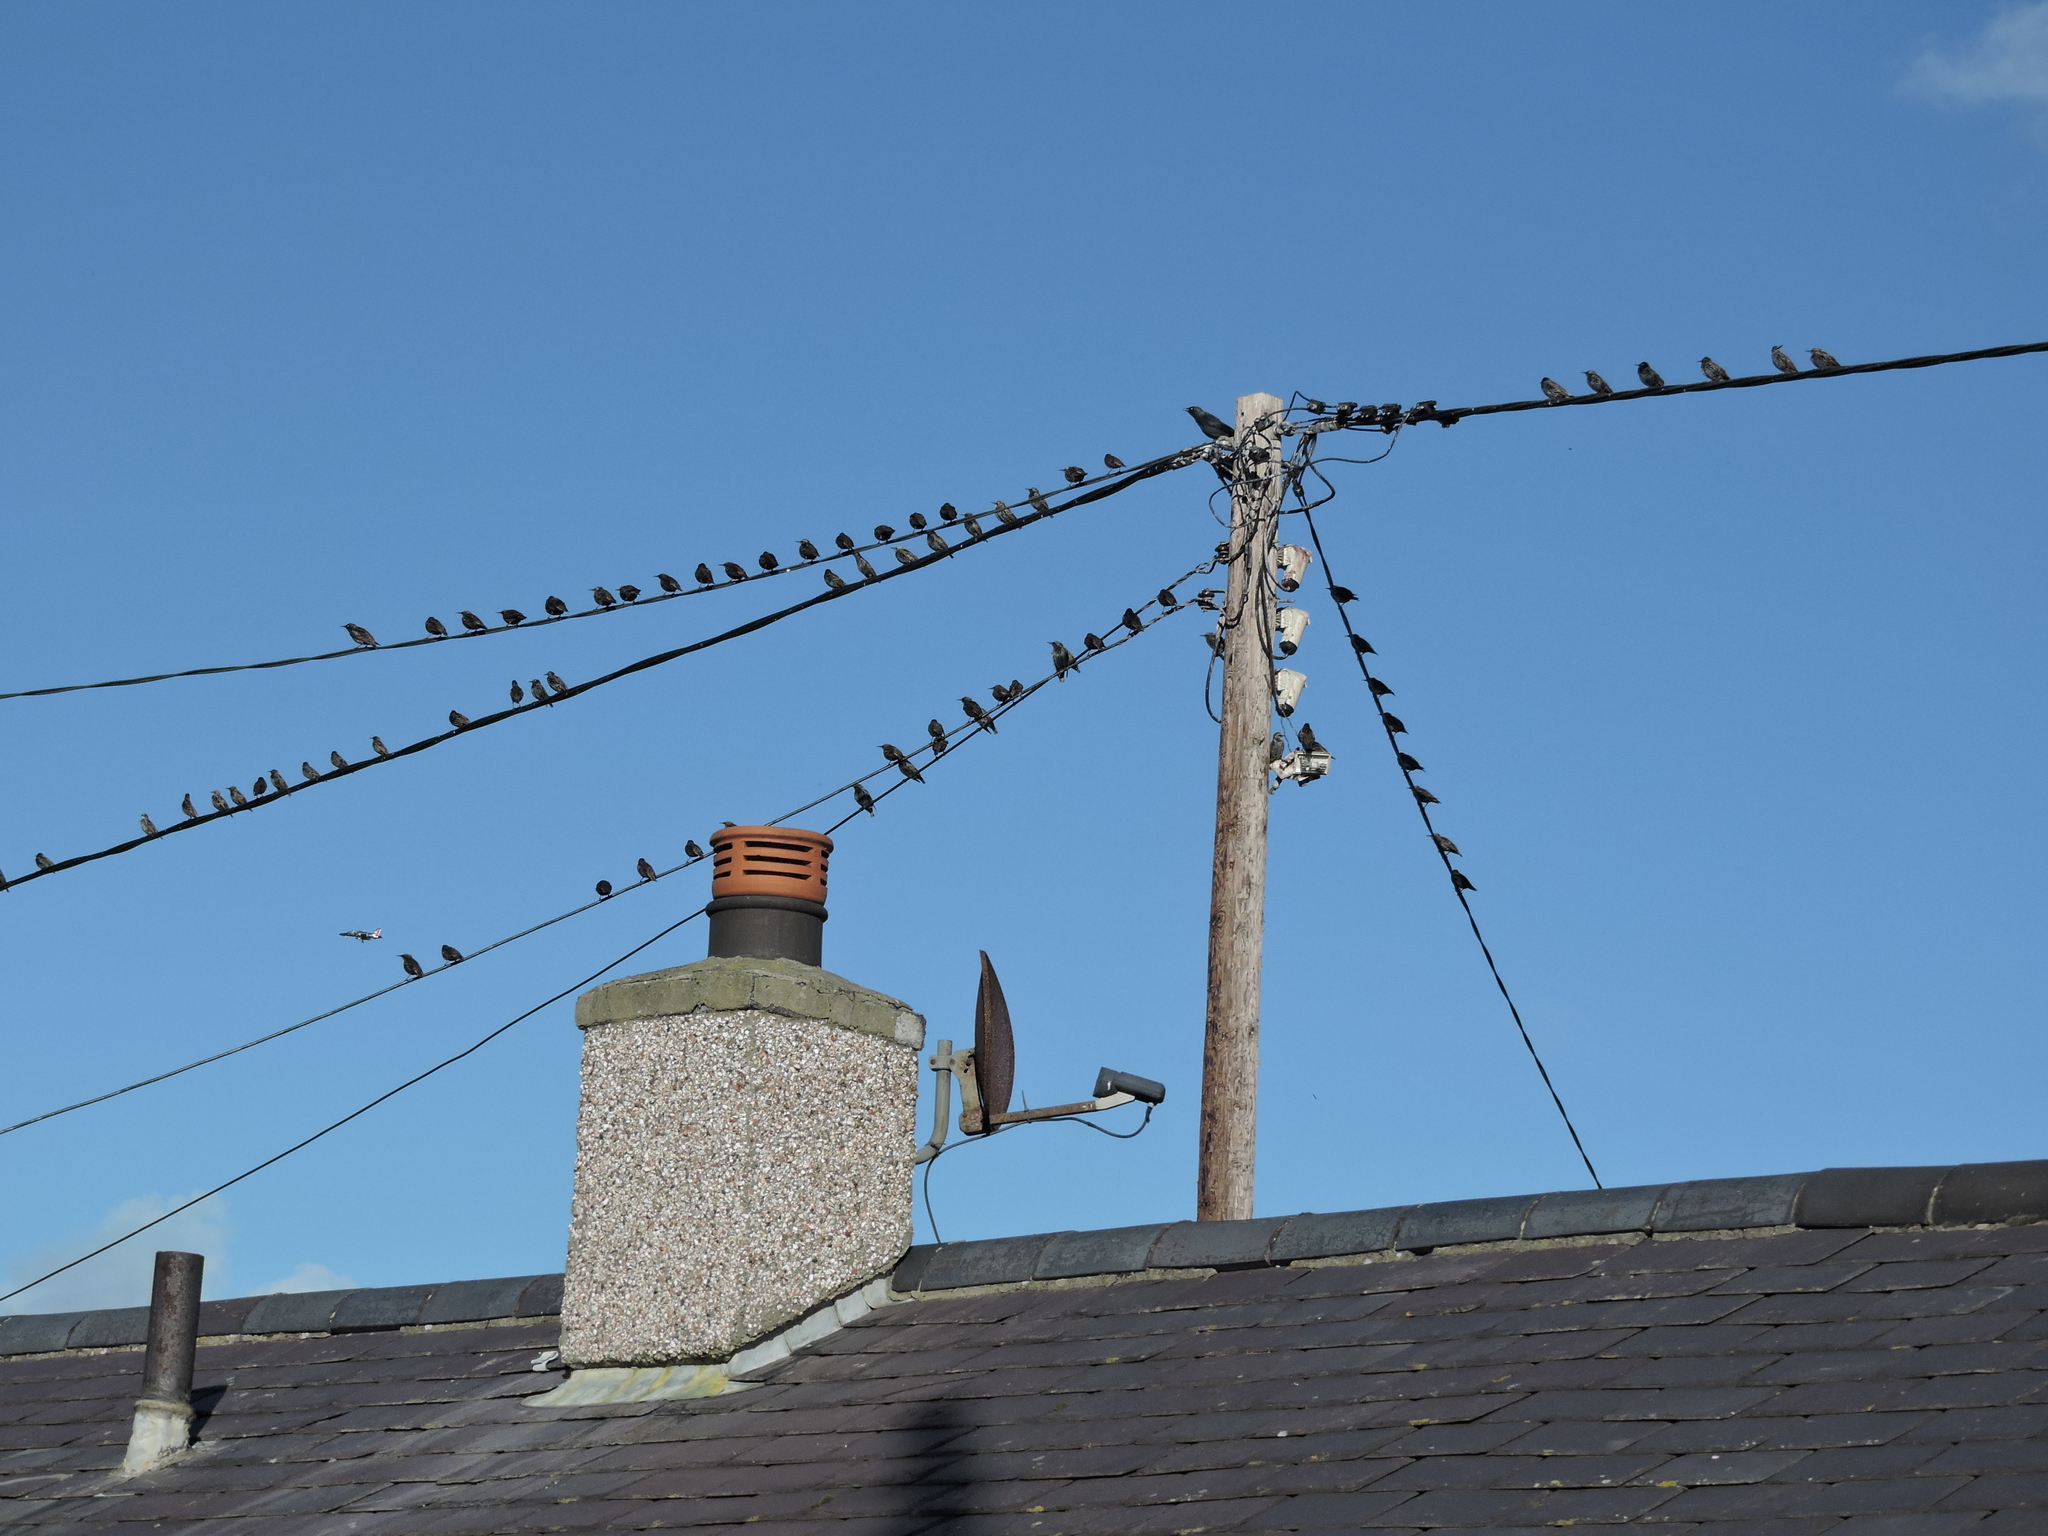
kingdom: Animalia
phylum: Chordata
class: Aves
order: Passeriformes
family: Sturnidae
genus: Sturnus
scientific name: Sturnus vulgaris
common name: Common starling
